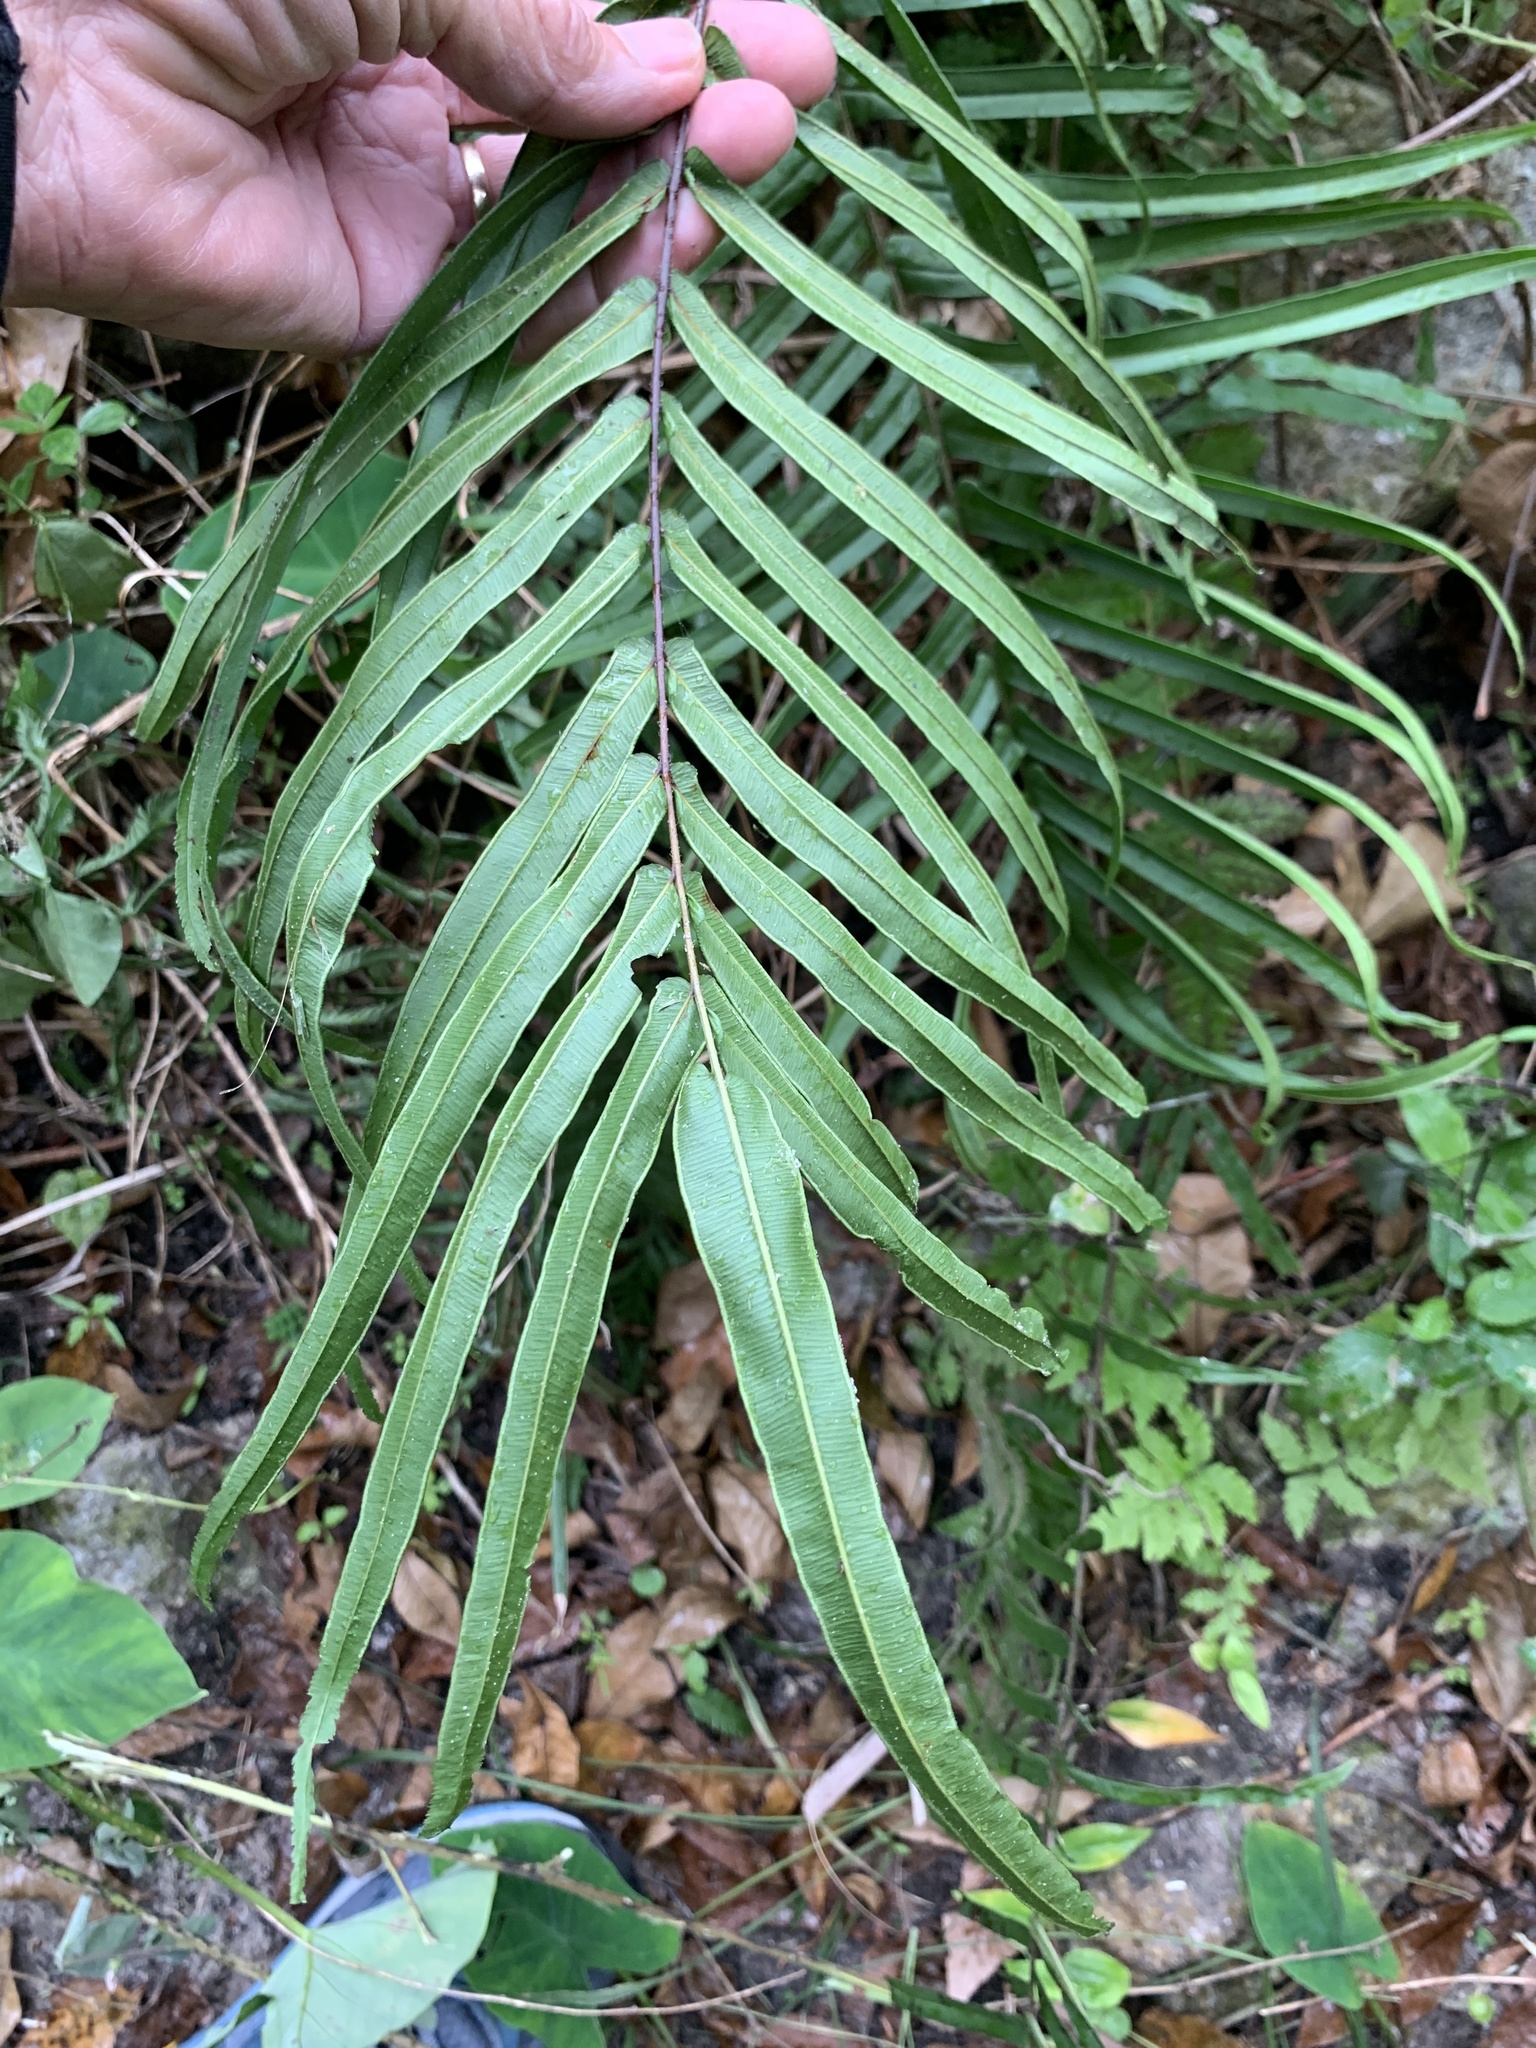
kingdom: Plantae
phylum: Tracheophyta
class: Polypodiopsida
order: Polypodiales
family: Pteridaceae
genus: Pteris
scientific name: Pteris vittata
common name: Ladder brake
